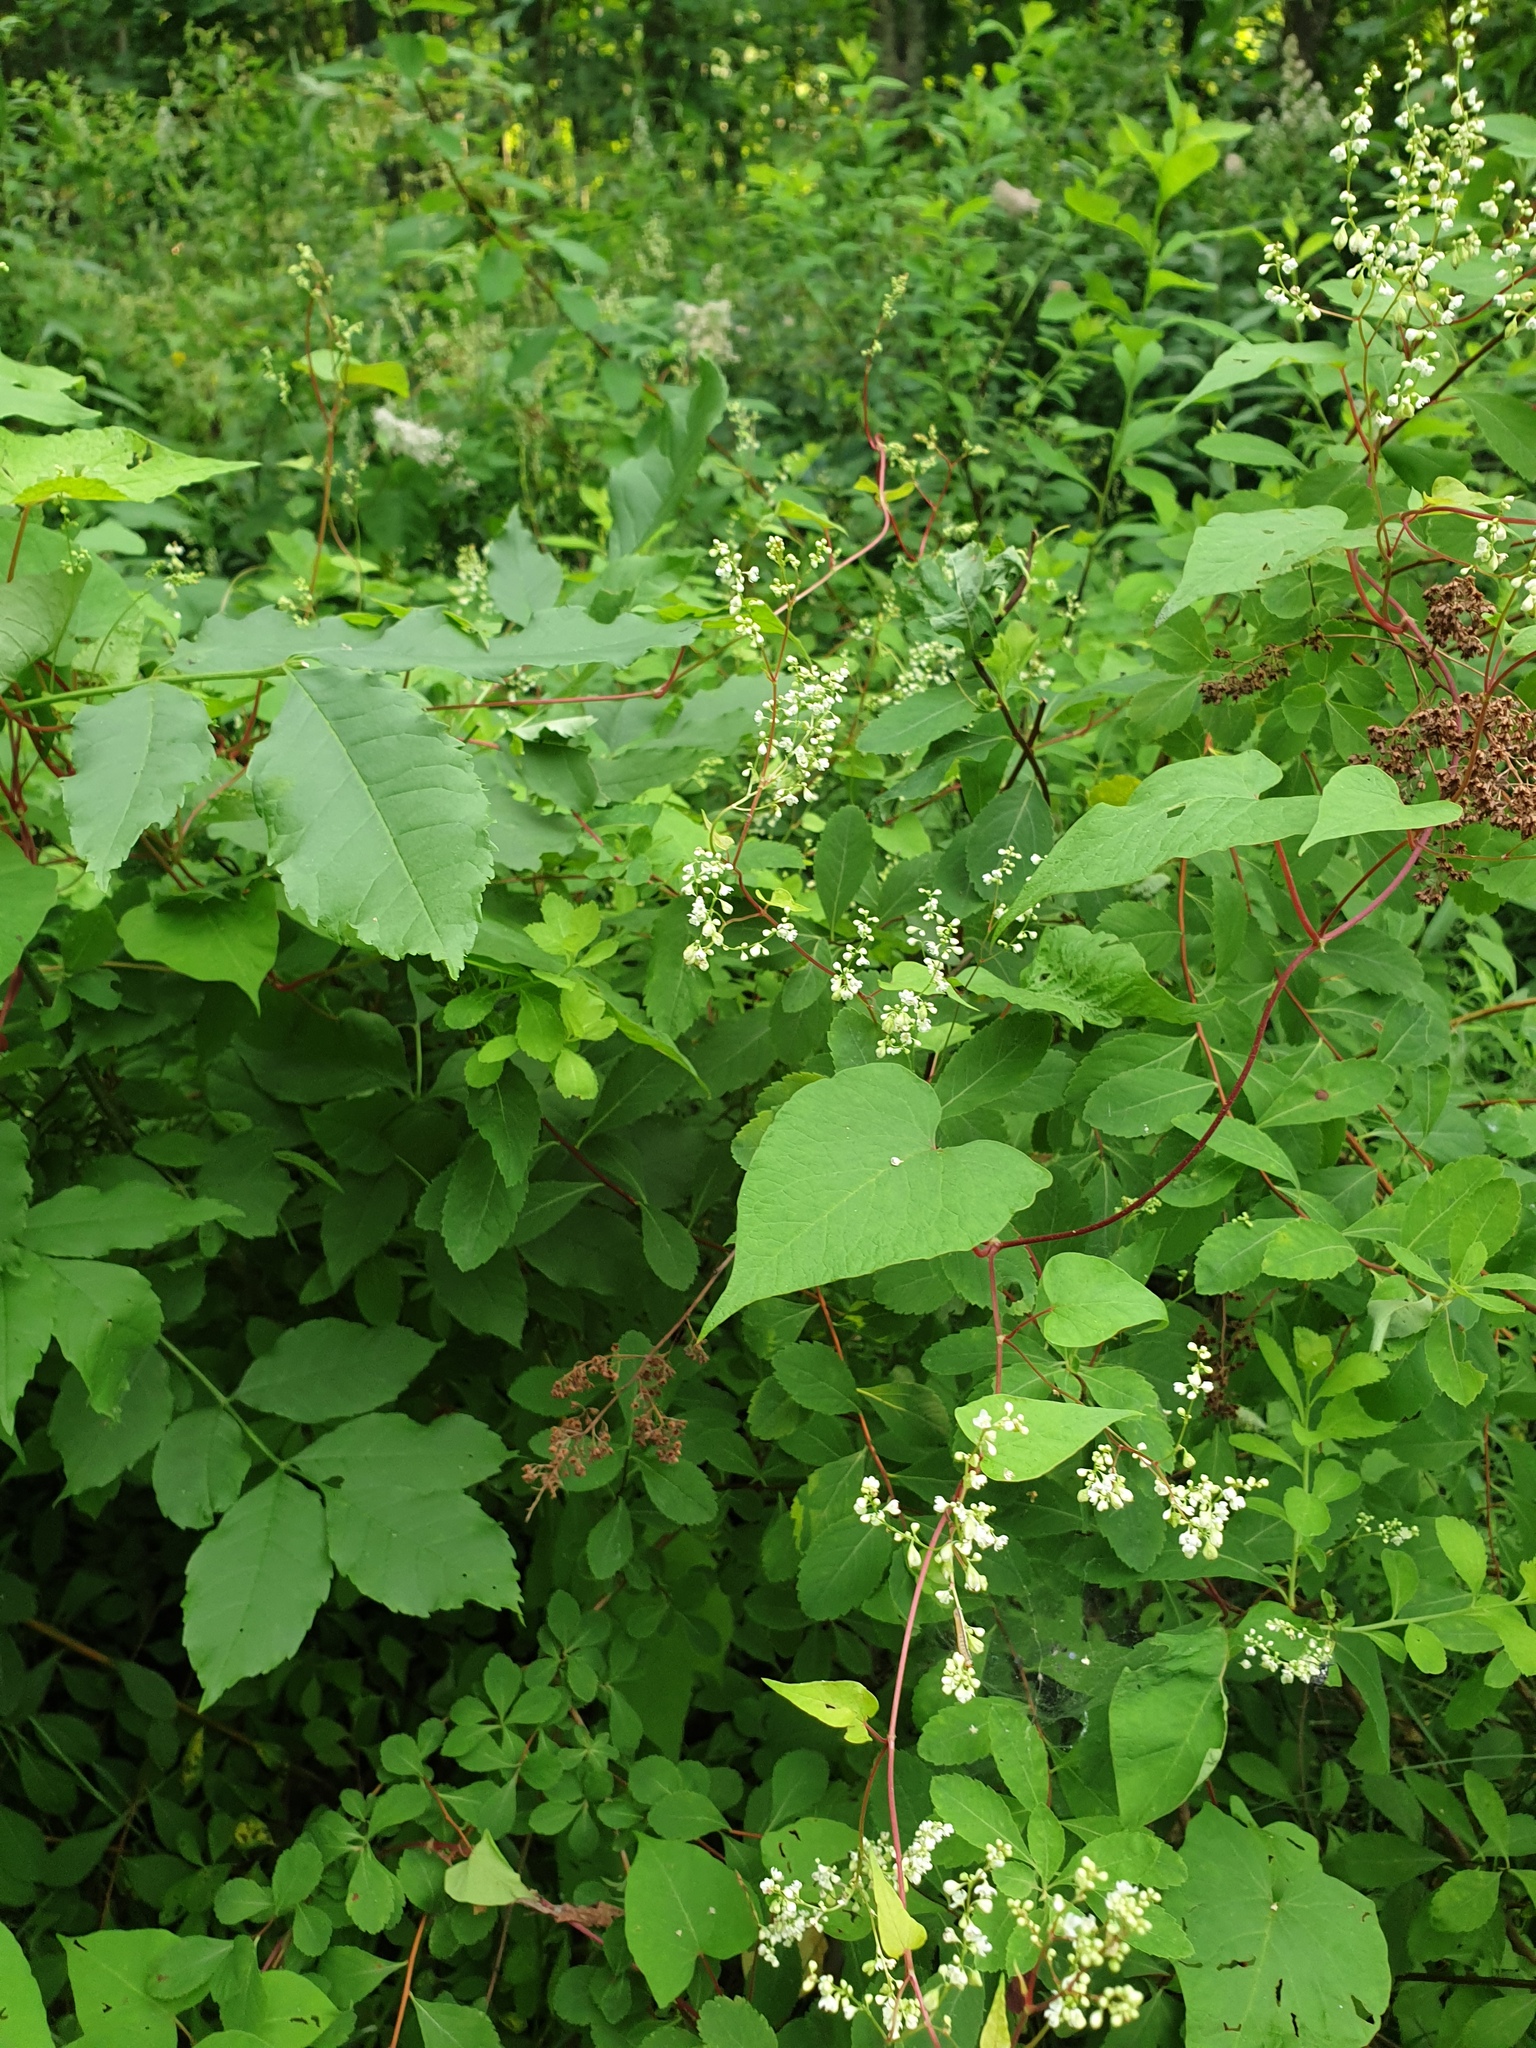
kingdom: Plantae
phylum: Tracheophyta
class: Magnoliopsida
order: Caryophyllales
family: Polygonaceae
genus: Parogonum
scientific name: Parogonum ciliinode
